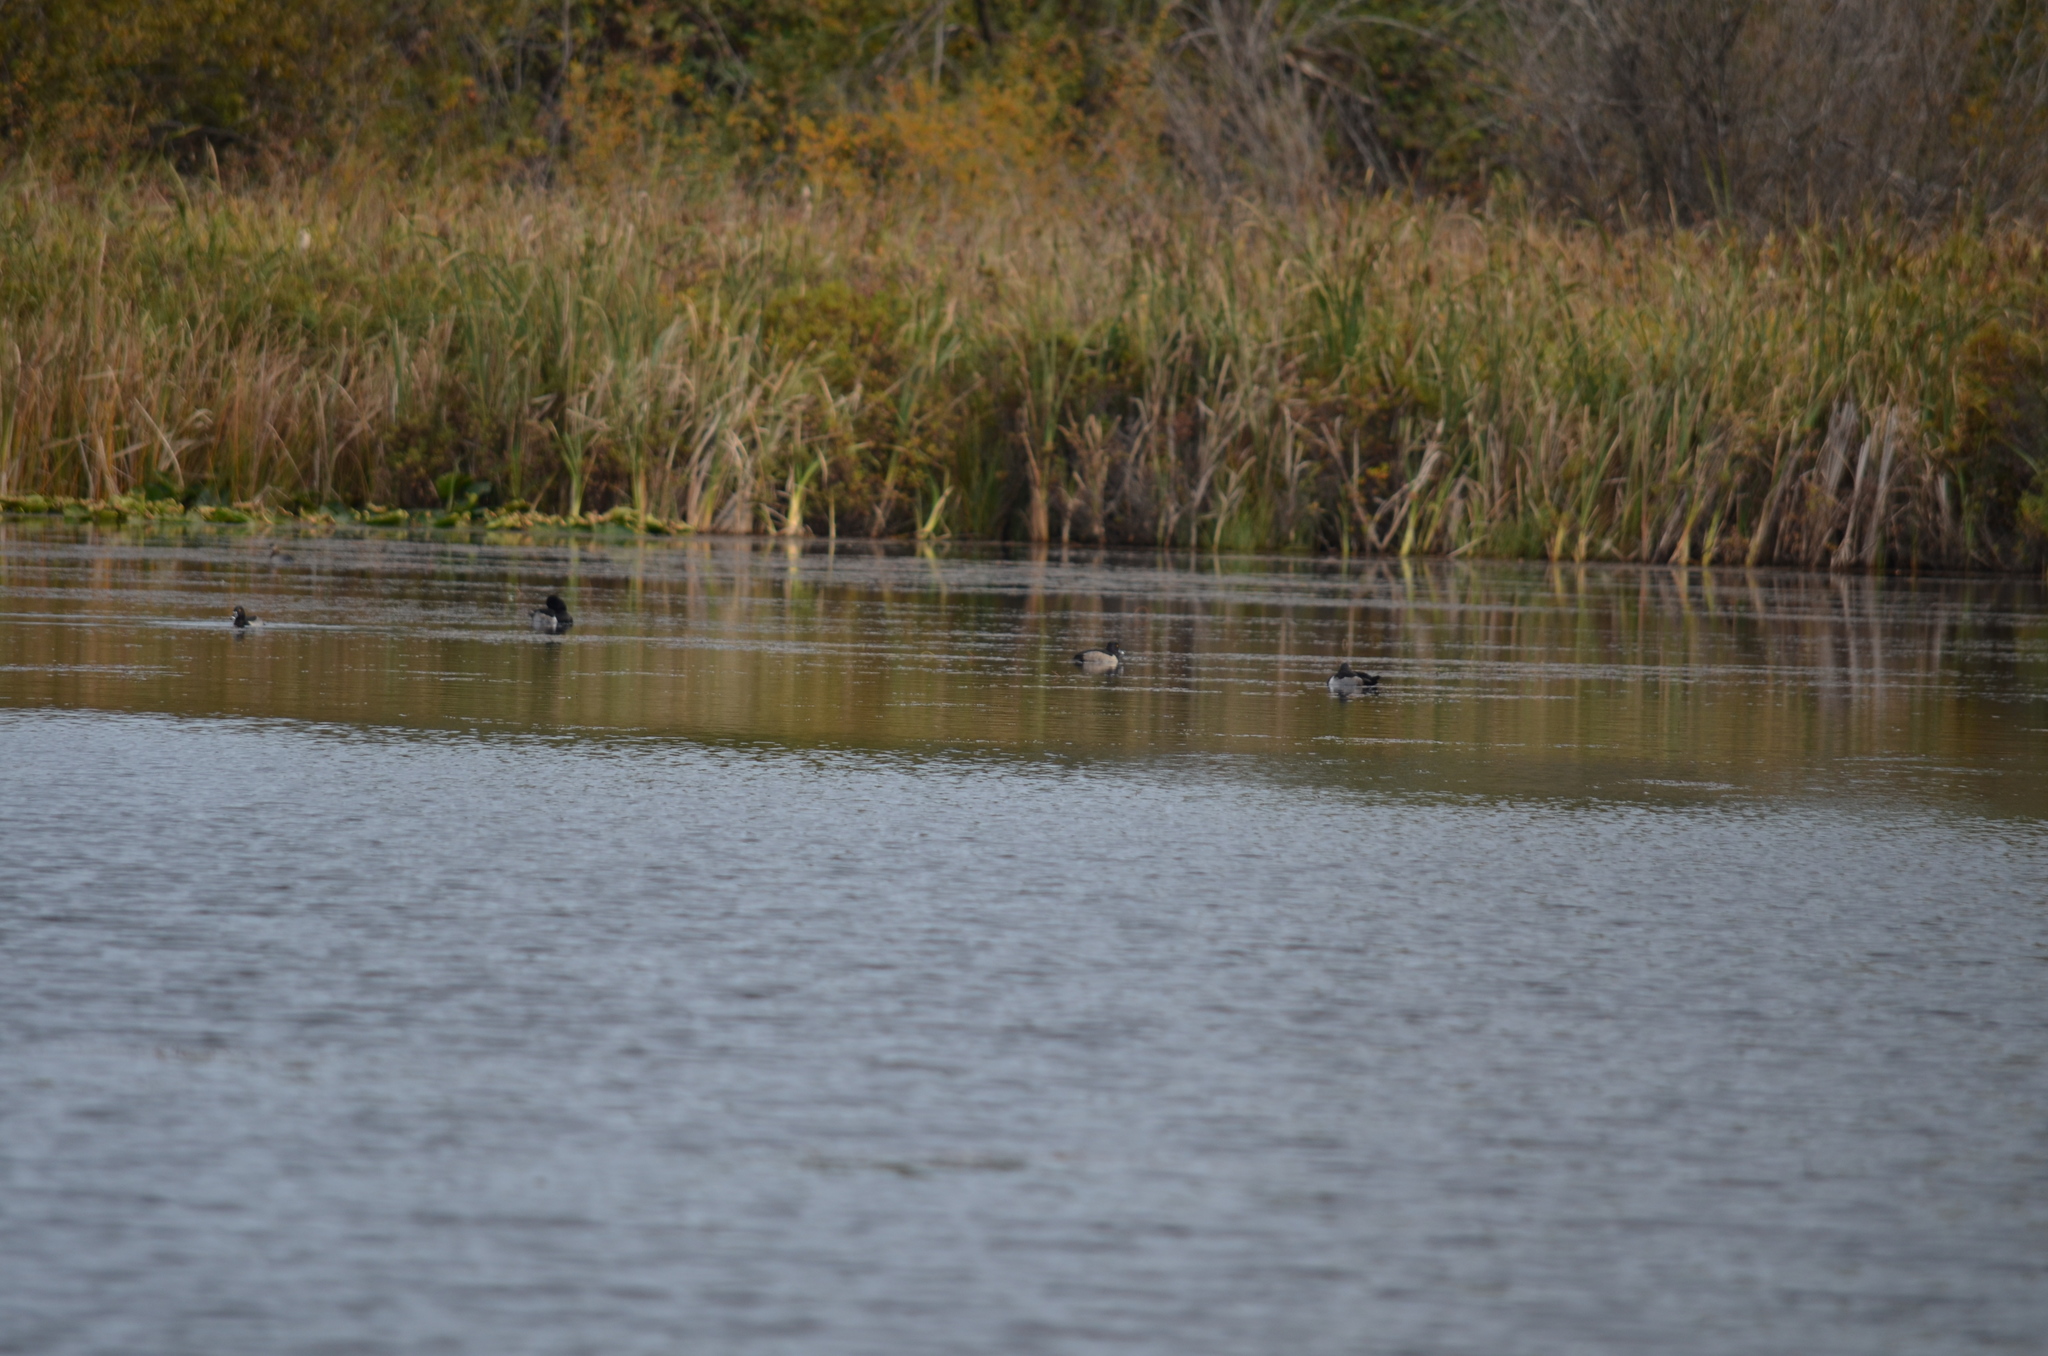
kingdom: Animalia
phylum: Chordata
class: Aves
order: Anseriformes
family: Anatidae
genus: Aythya
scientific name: Aythya collaris
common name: Ring-necked duck
